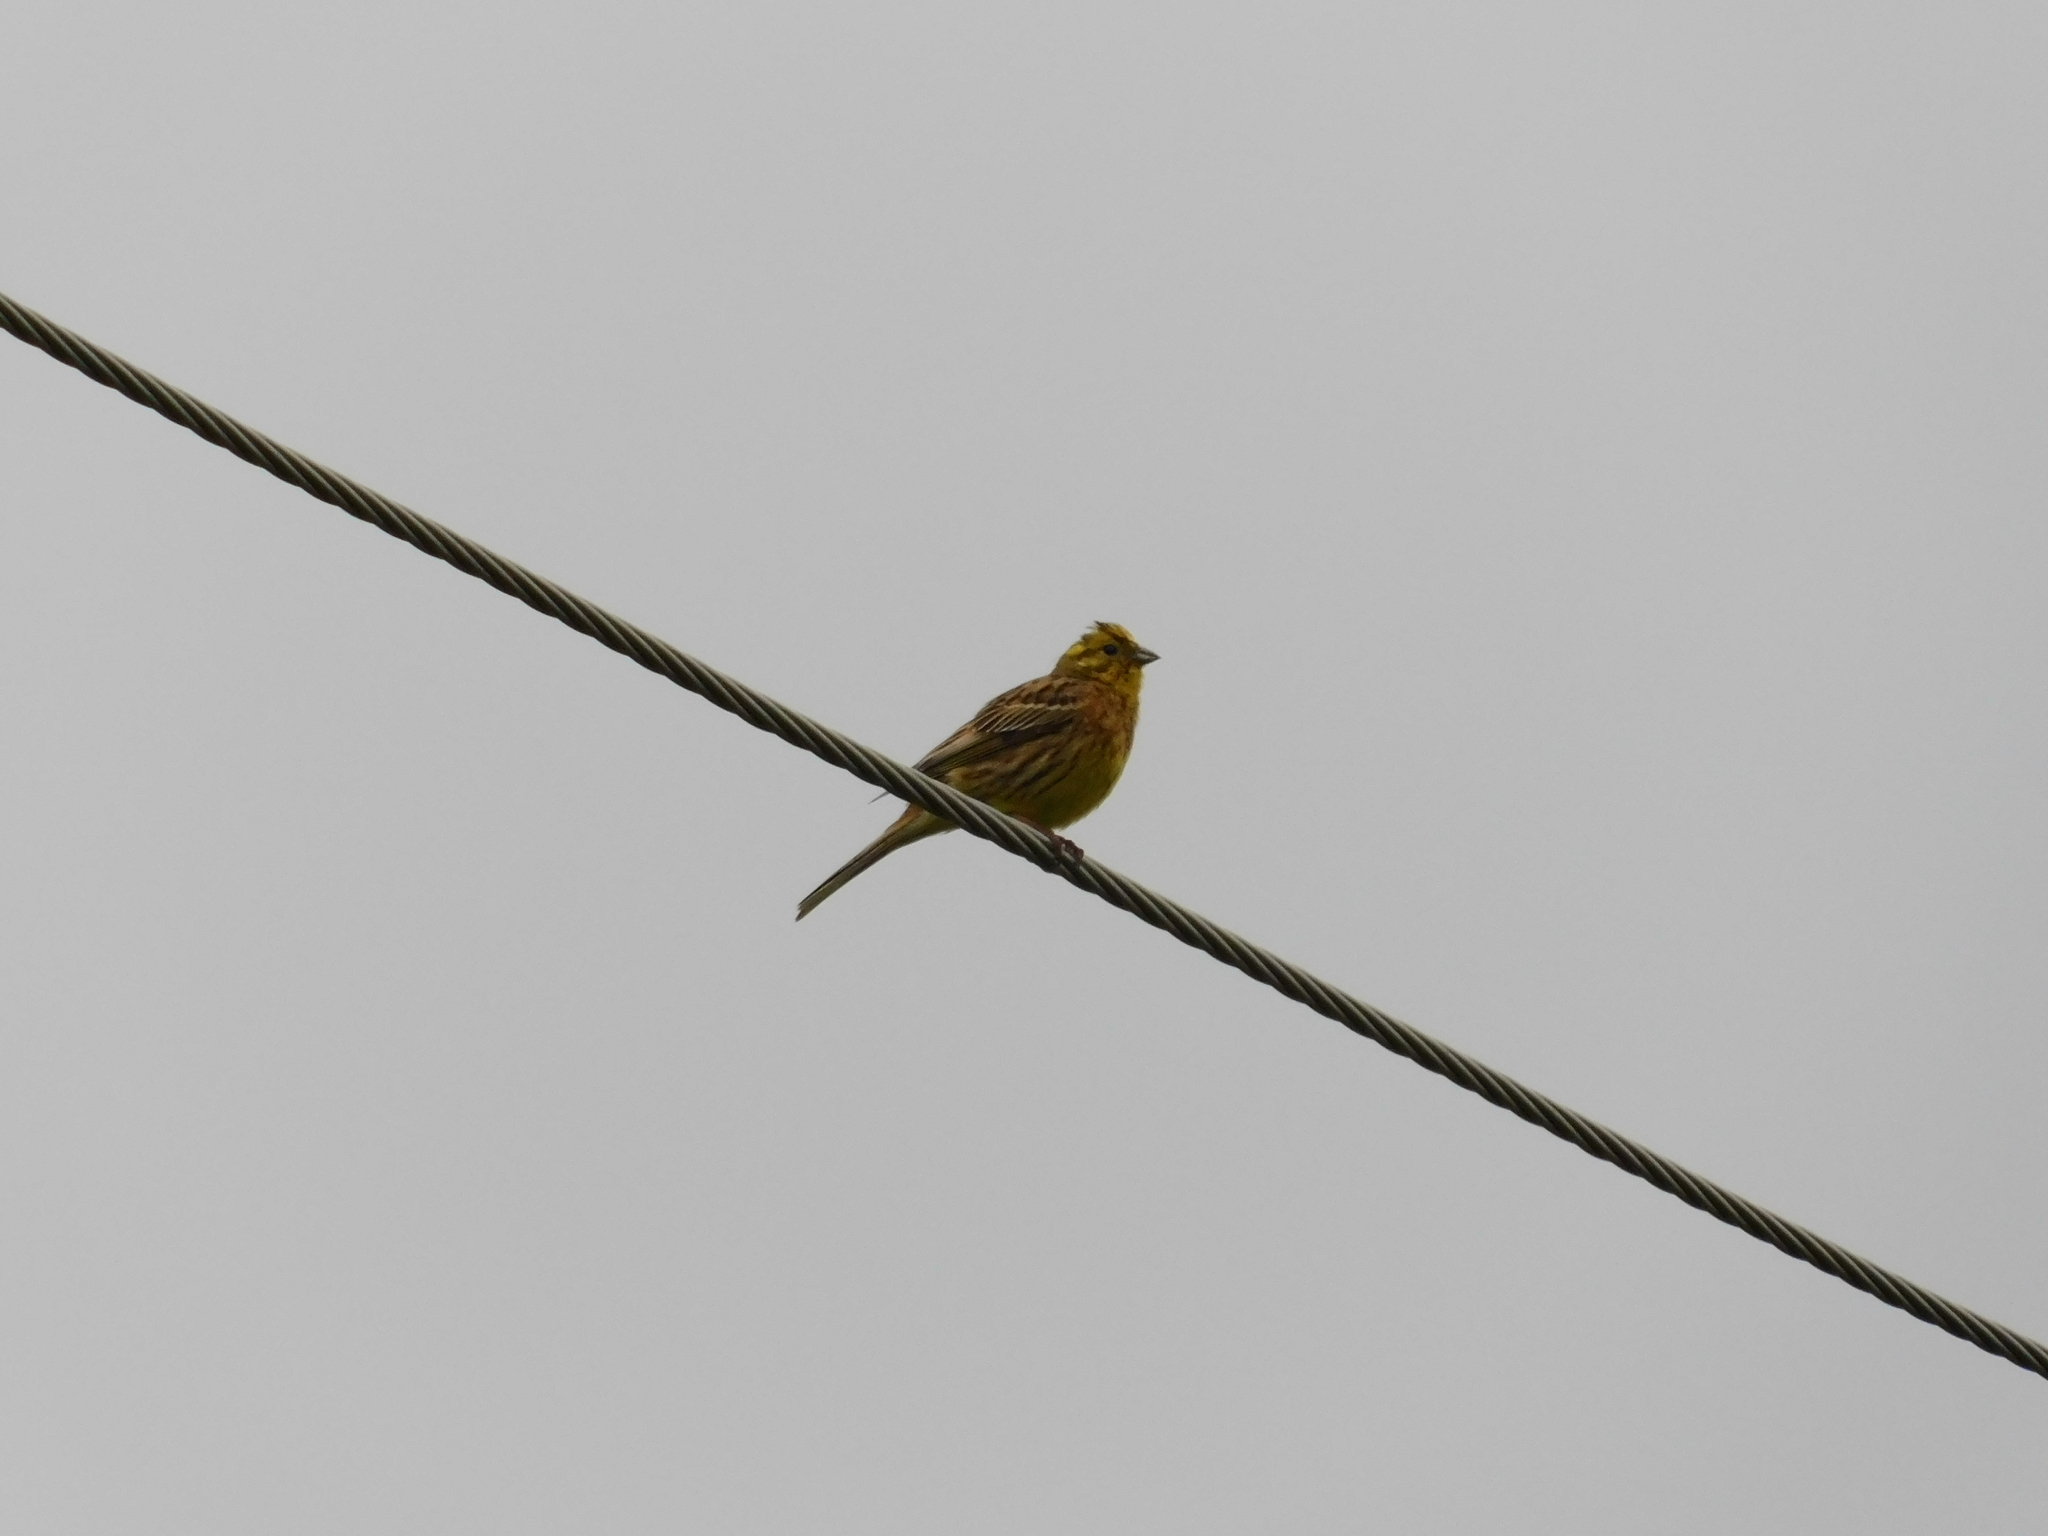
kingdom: Animalia
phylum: Chordata
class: Aves
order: Passeriformes
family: Emberizidae
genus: Emberiza
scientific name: Emberiza citrinella
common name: Yellowhammer
